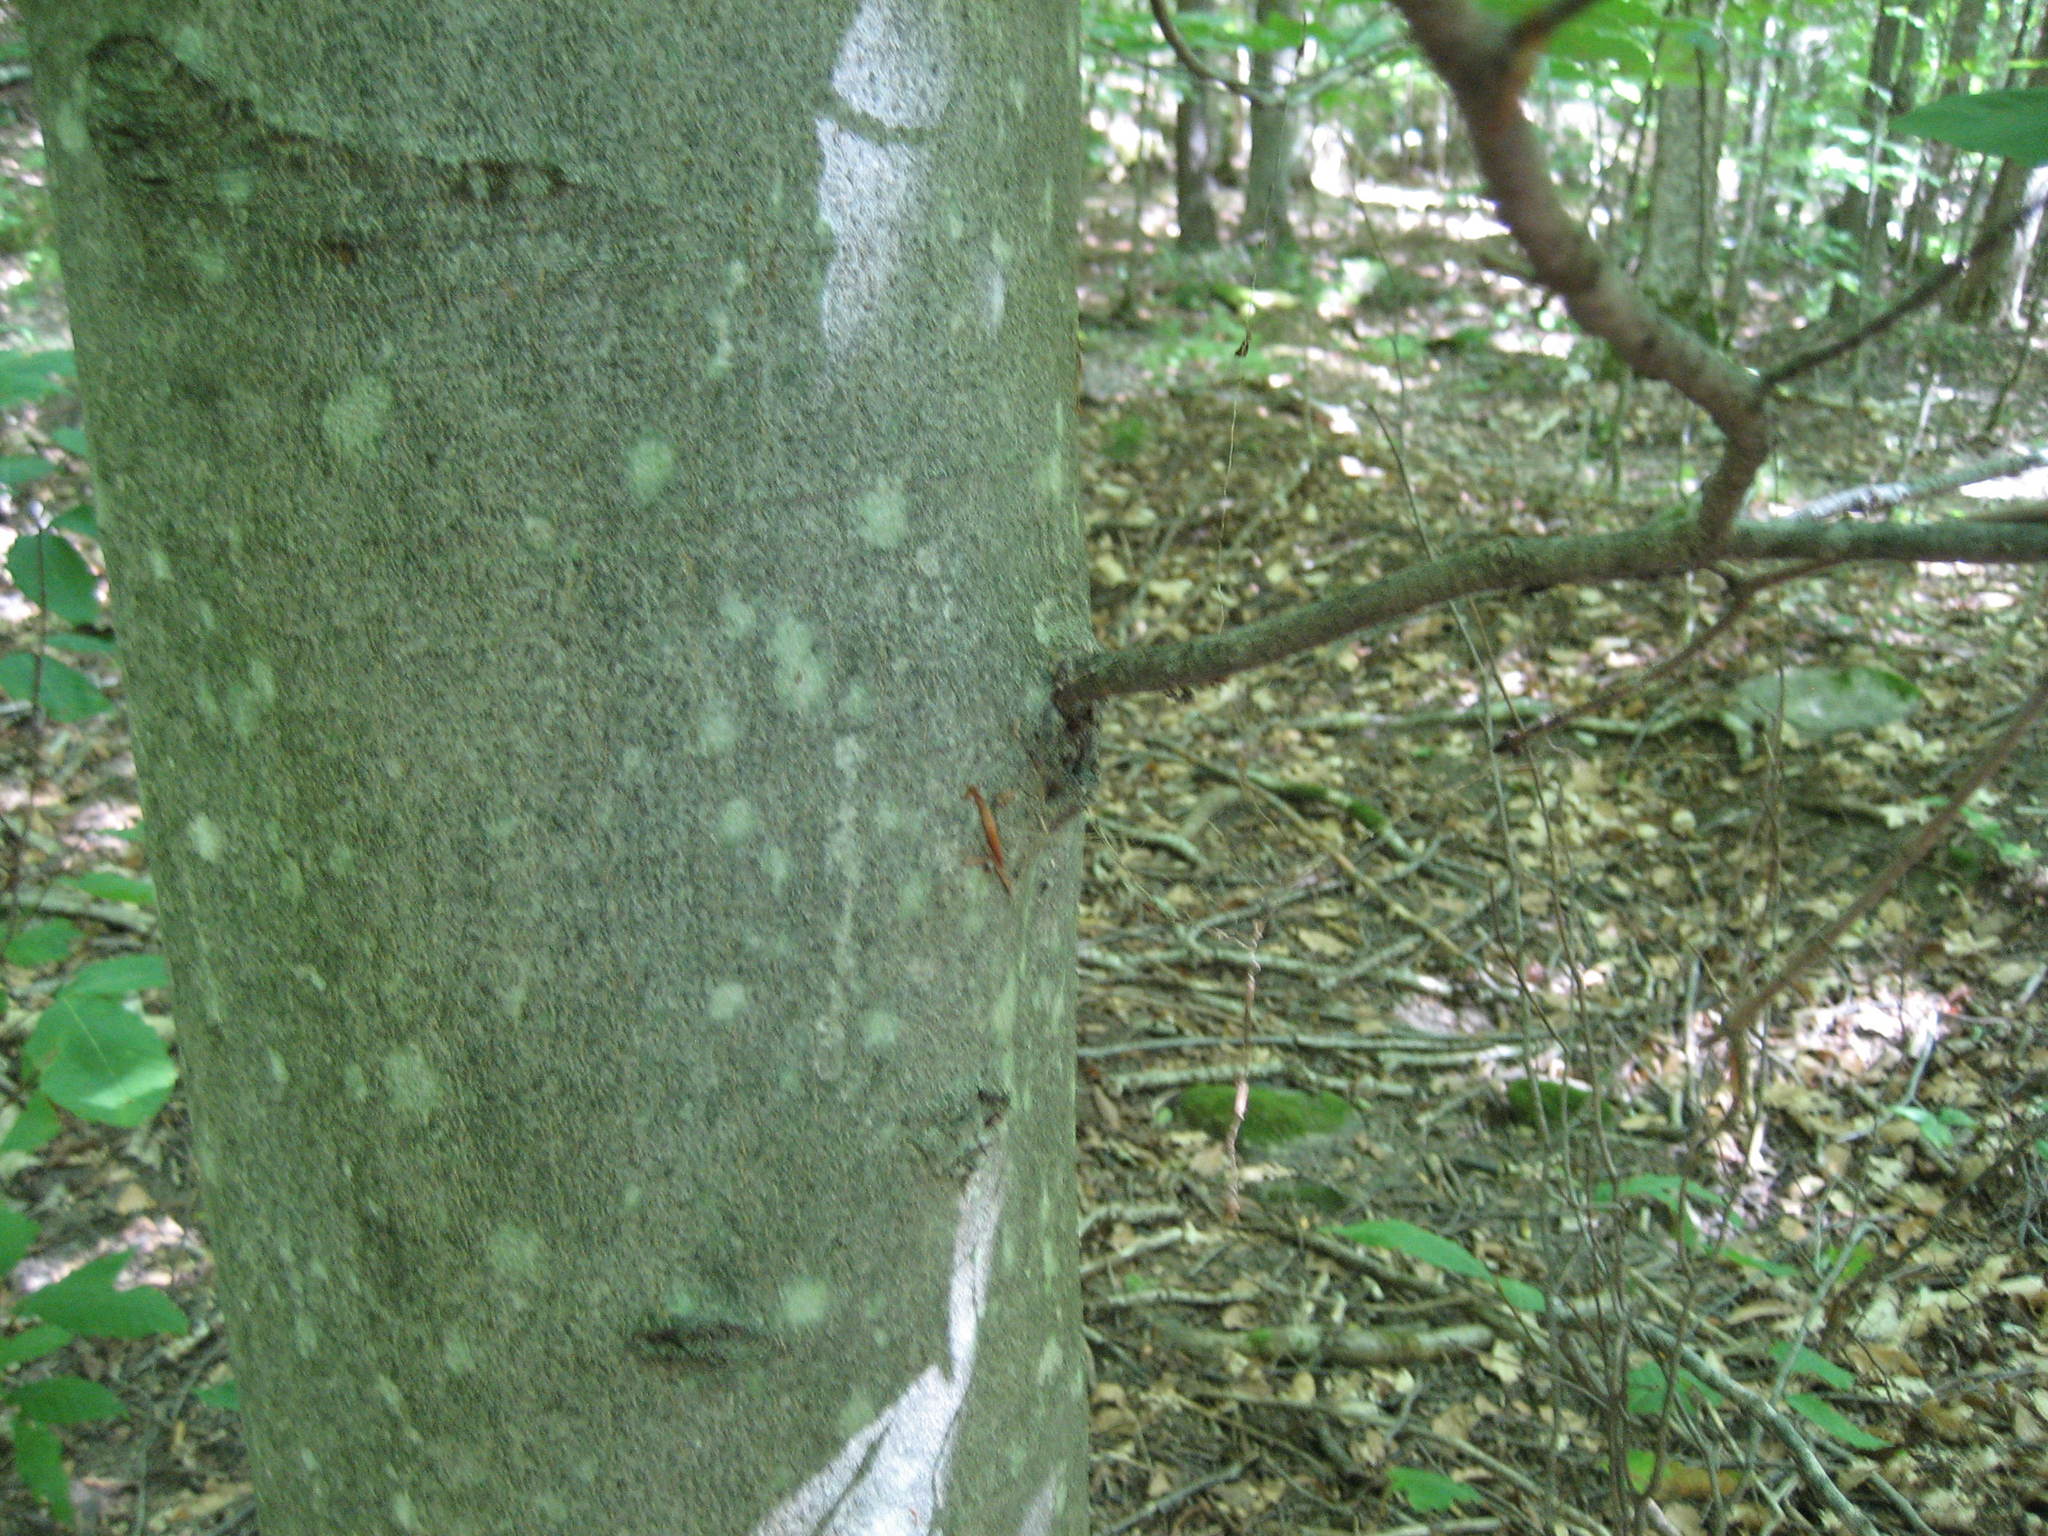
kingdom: Plantae
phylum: Tracheophyta
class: Magnoliopsida
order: Fagales
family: Fagaceae
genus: Fagus
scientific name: Fagus grandifolia
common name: American beech
